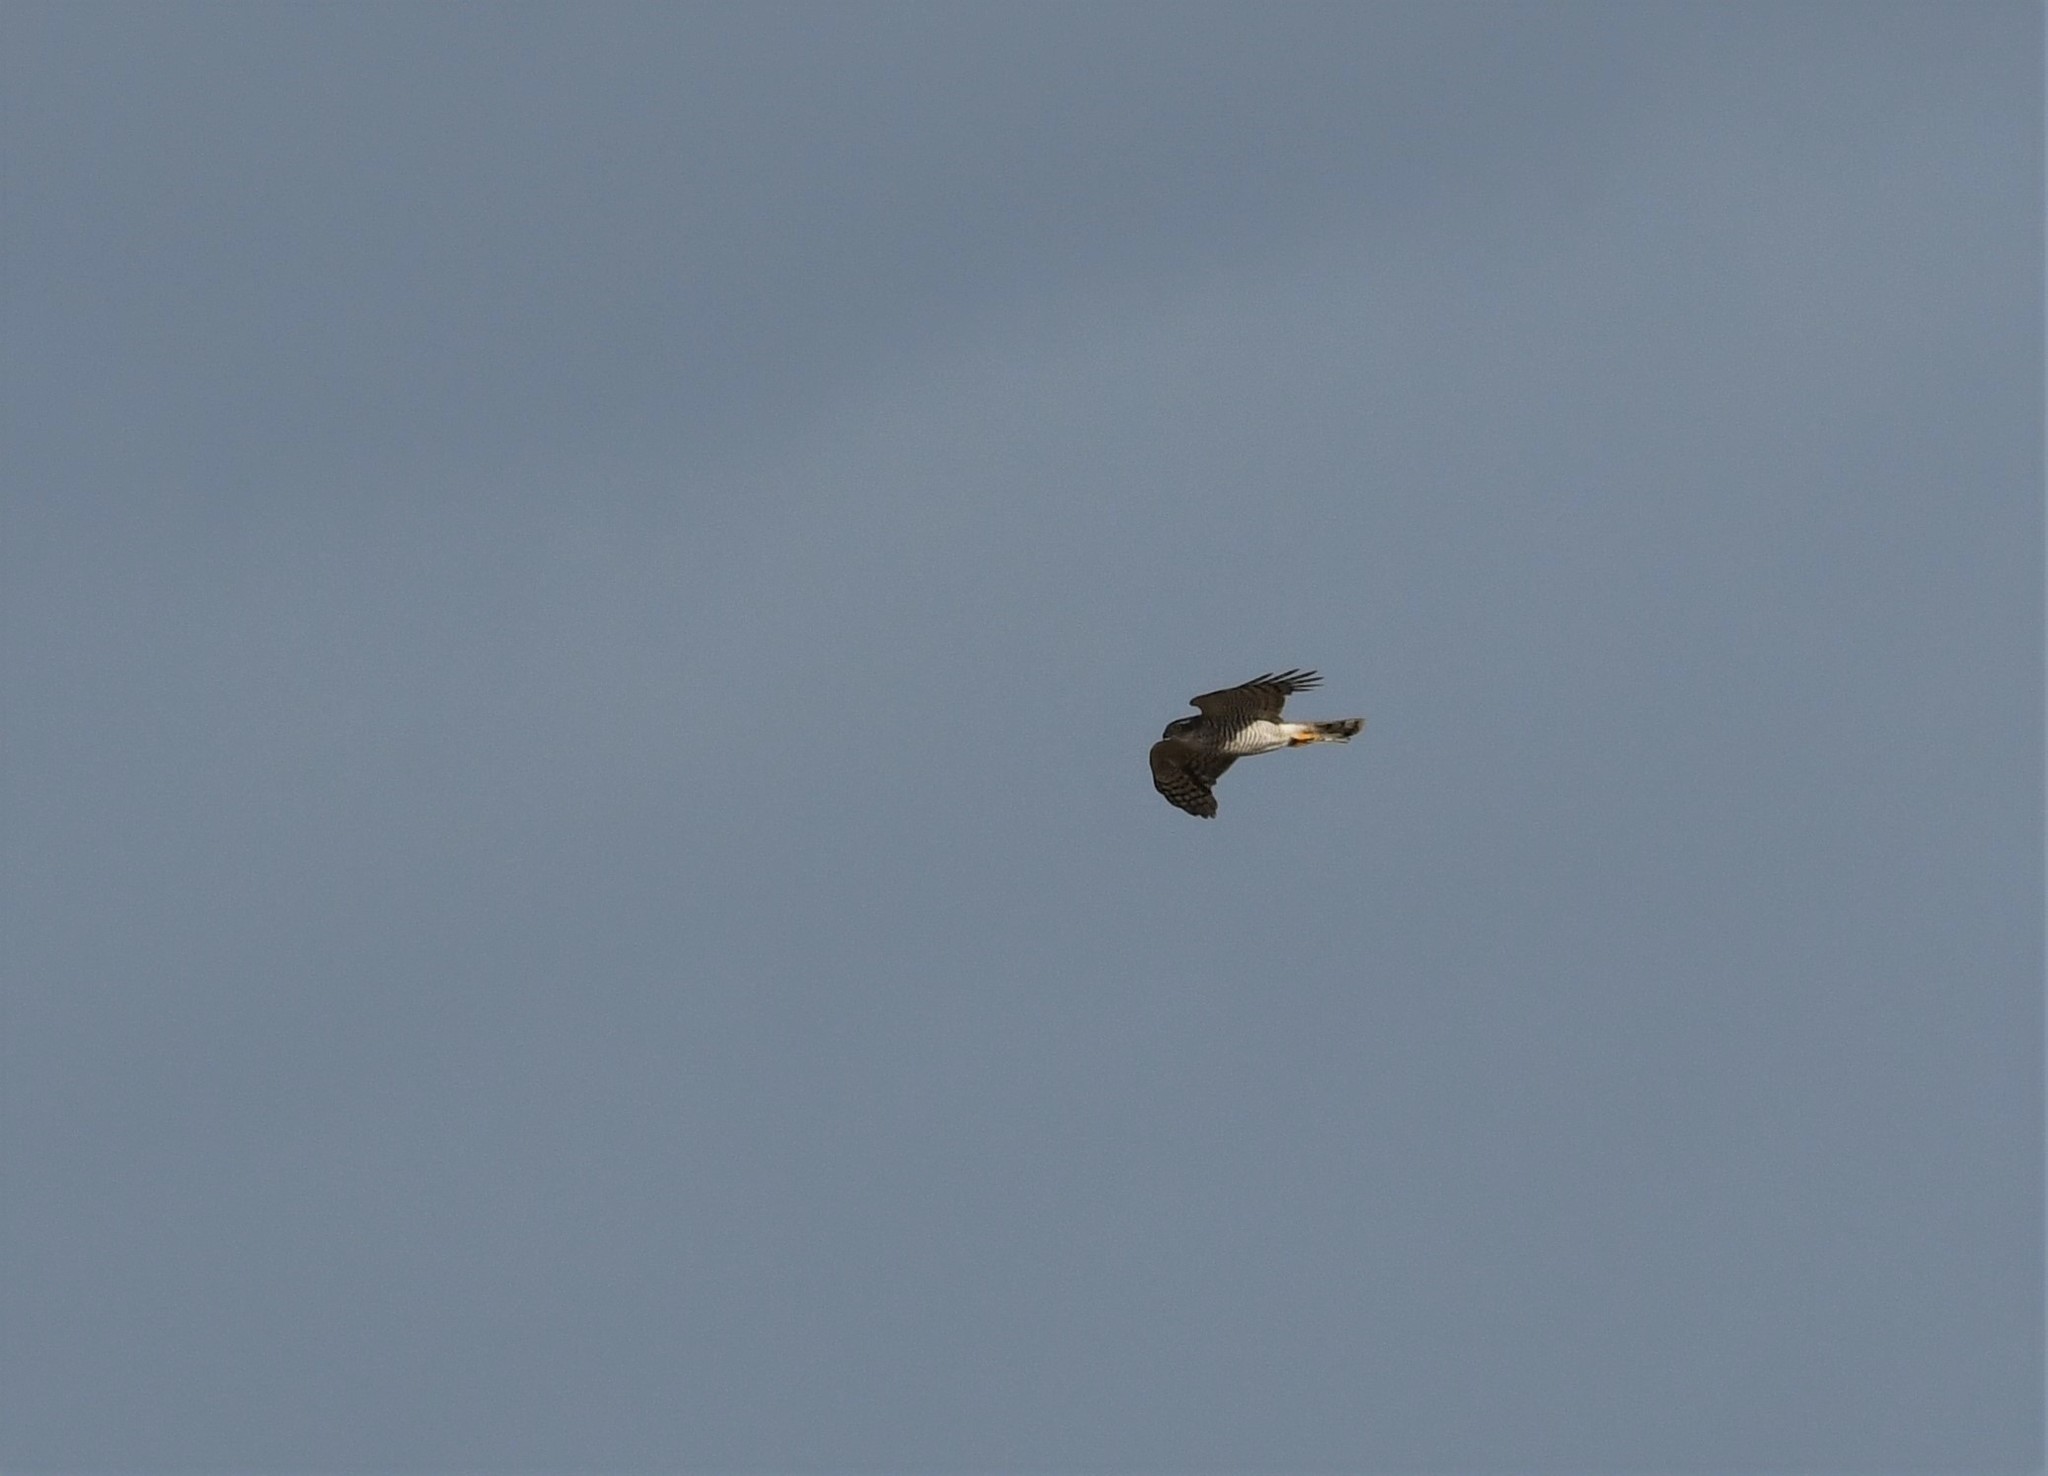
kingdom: Animalia
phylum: Chordata
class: Aves
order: Accipitriformes
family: Accipitridae
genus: Accipiter
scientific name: Accipiter nisus
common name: Eurasian sparrowhawk
